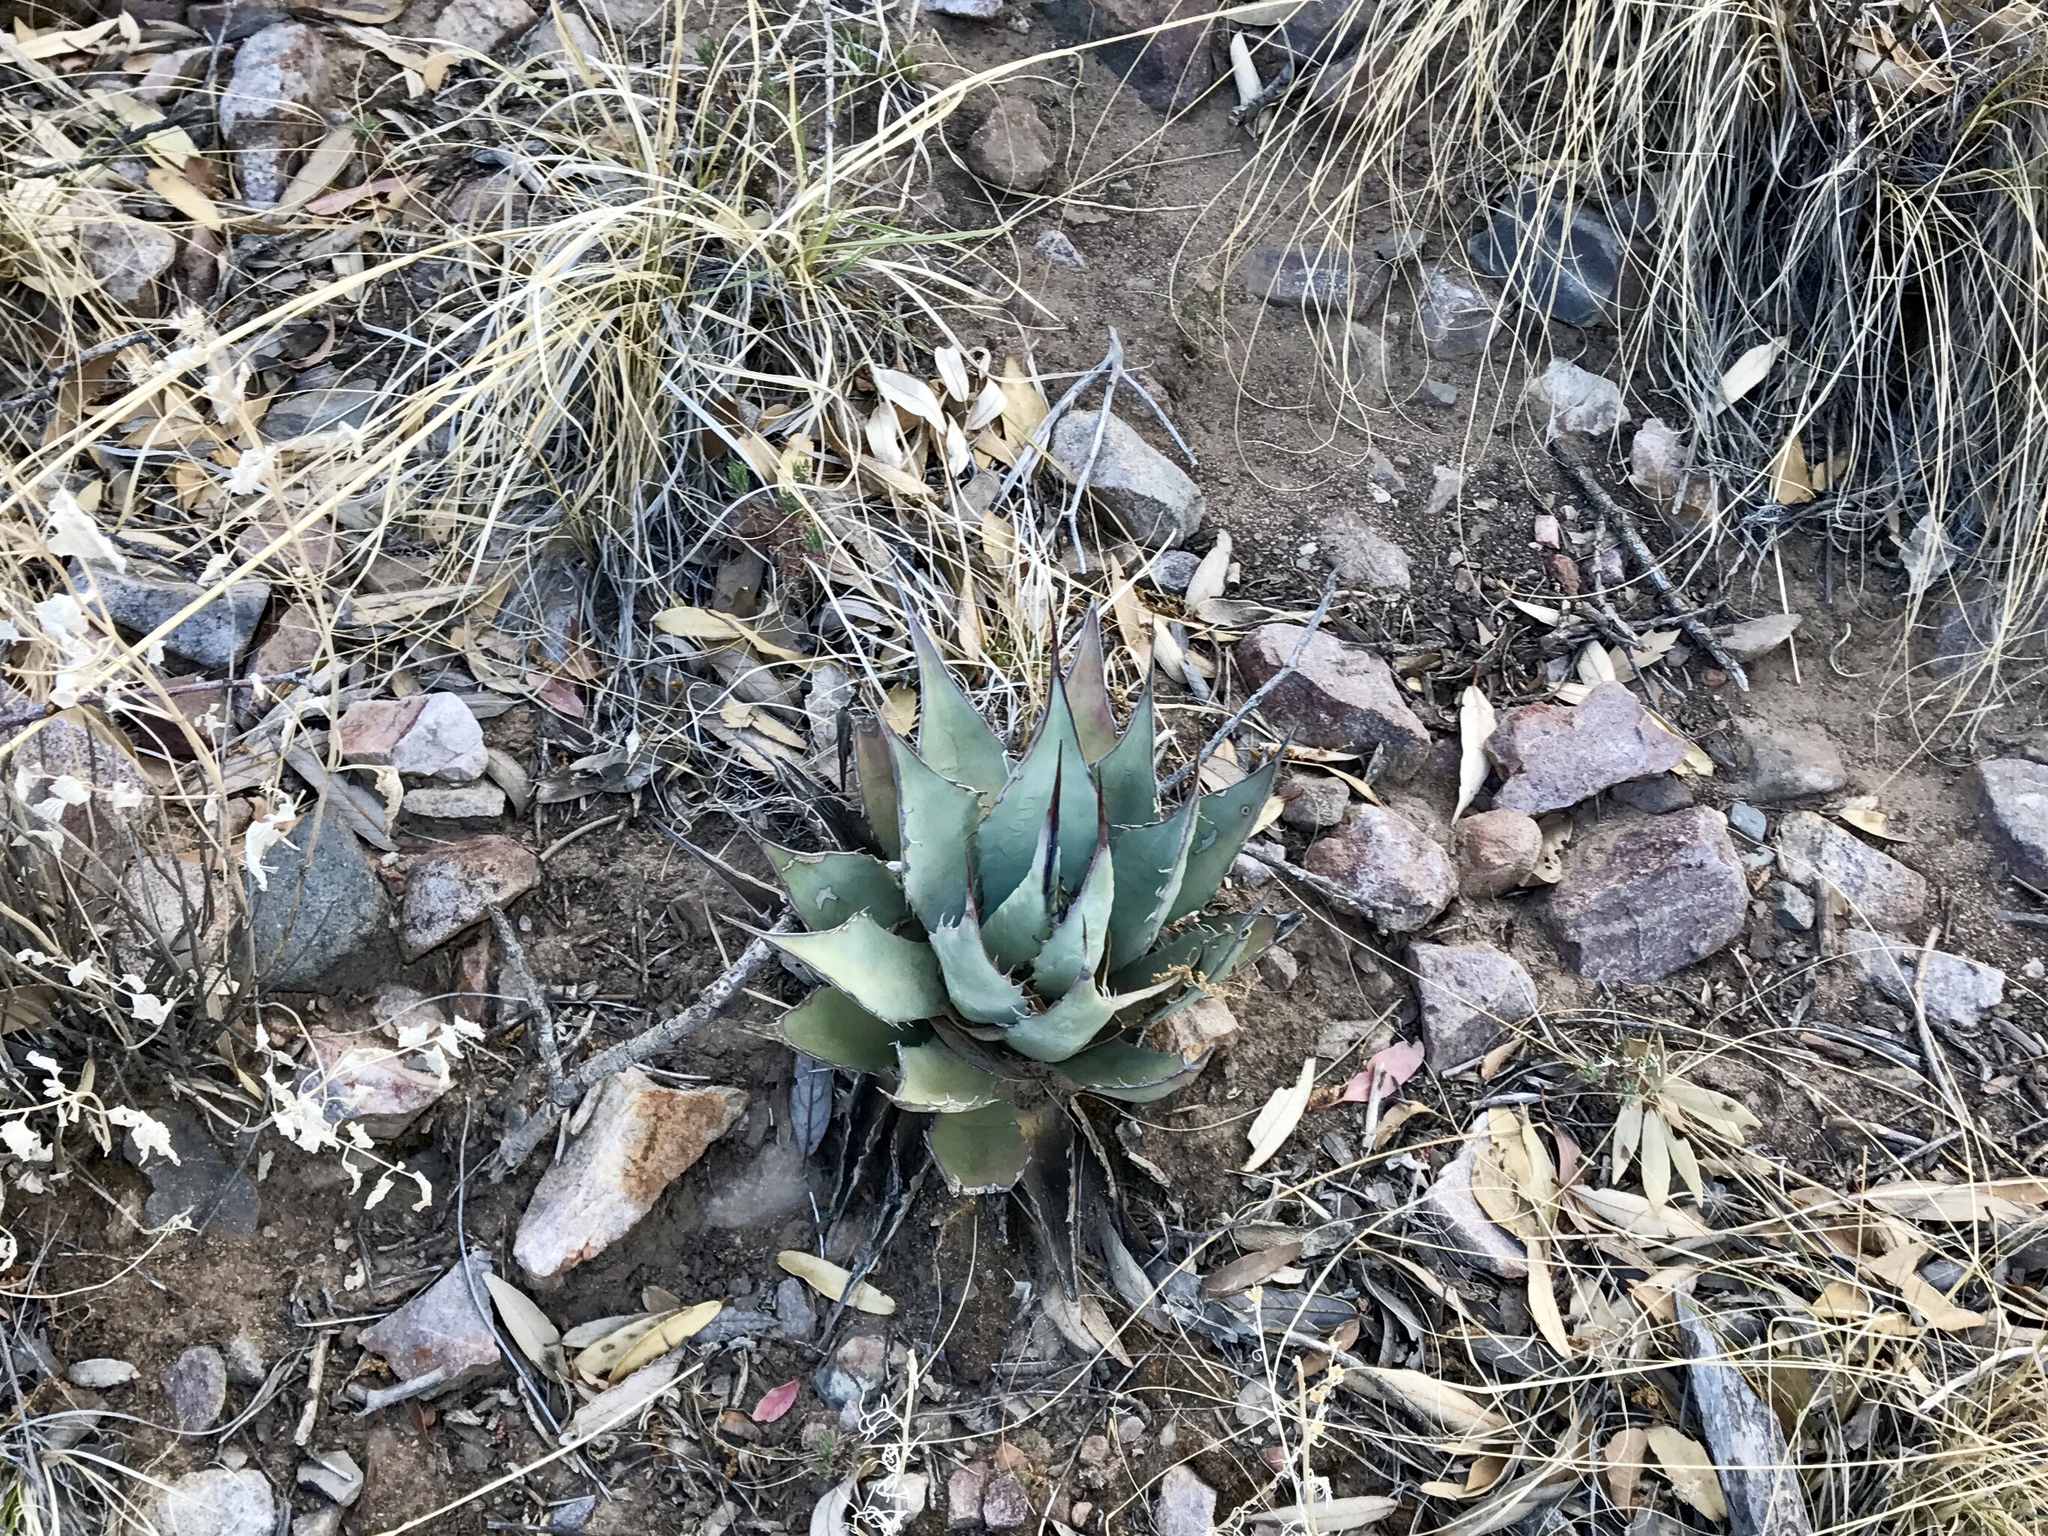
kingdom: Plantae
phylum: Tracheophyta
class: Liliopsida
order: Asparagales
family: Asparagaceae
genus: Agave
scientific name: Agave parryi
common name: Parry's agave
